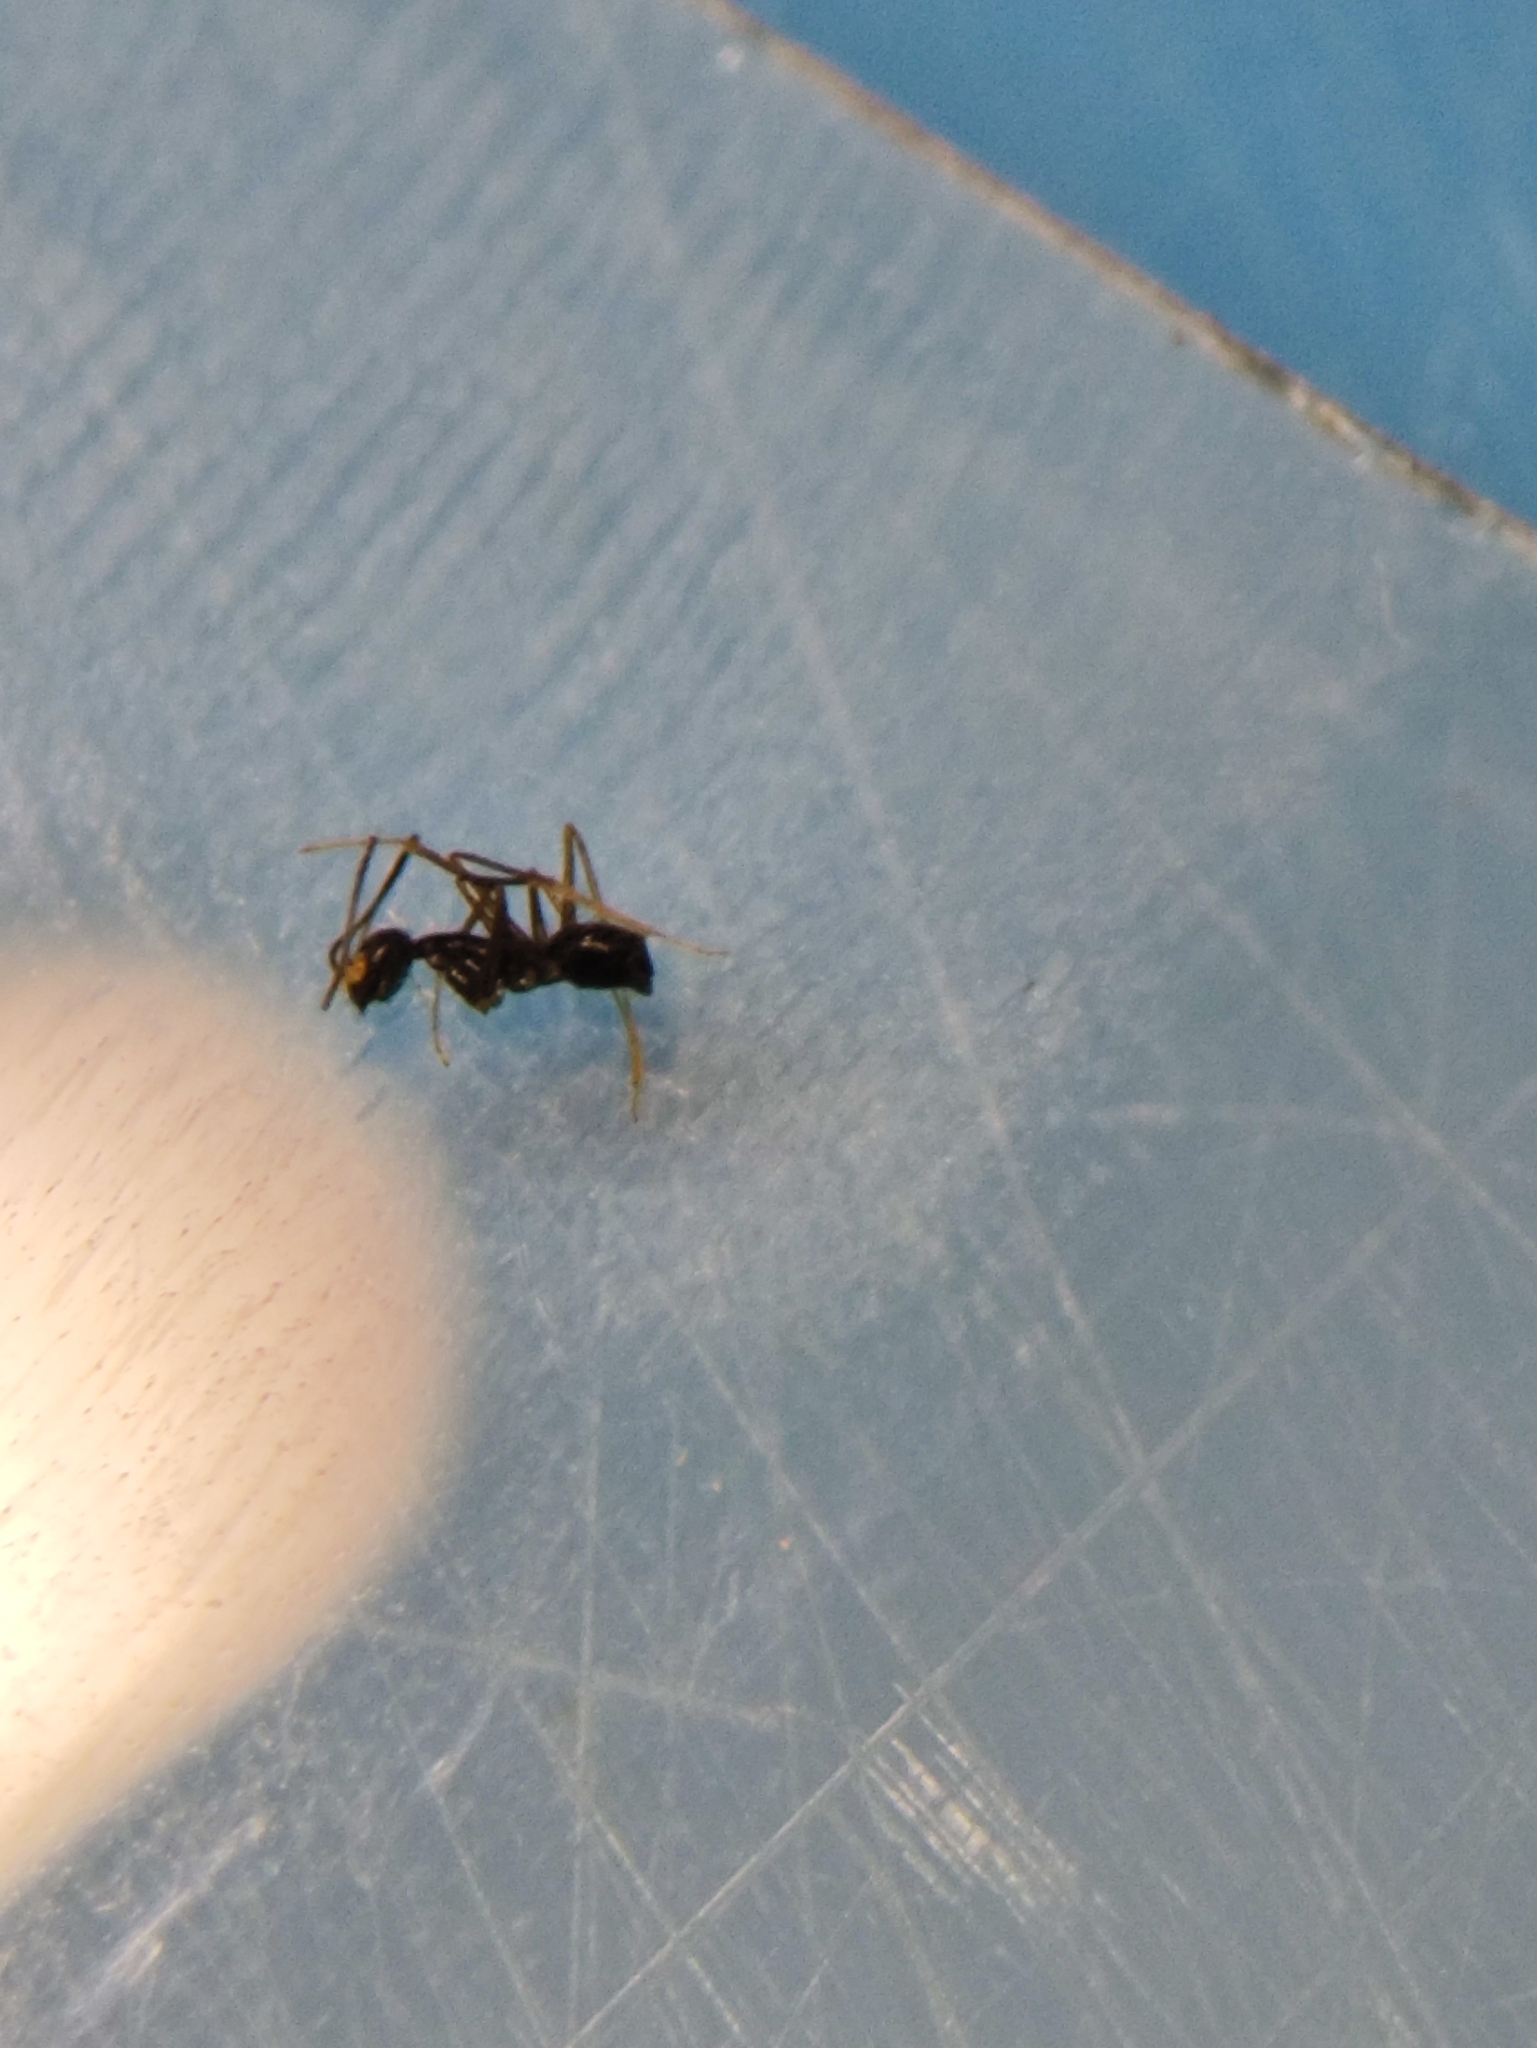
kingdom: Animalia
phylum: Arthropoda
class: Insecta
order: Hymenoptera
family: Formicidae
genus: Paratrechina
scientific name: Paratrechina longicornis
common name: Longhorned crazy ant
